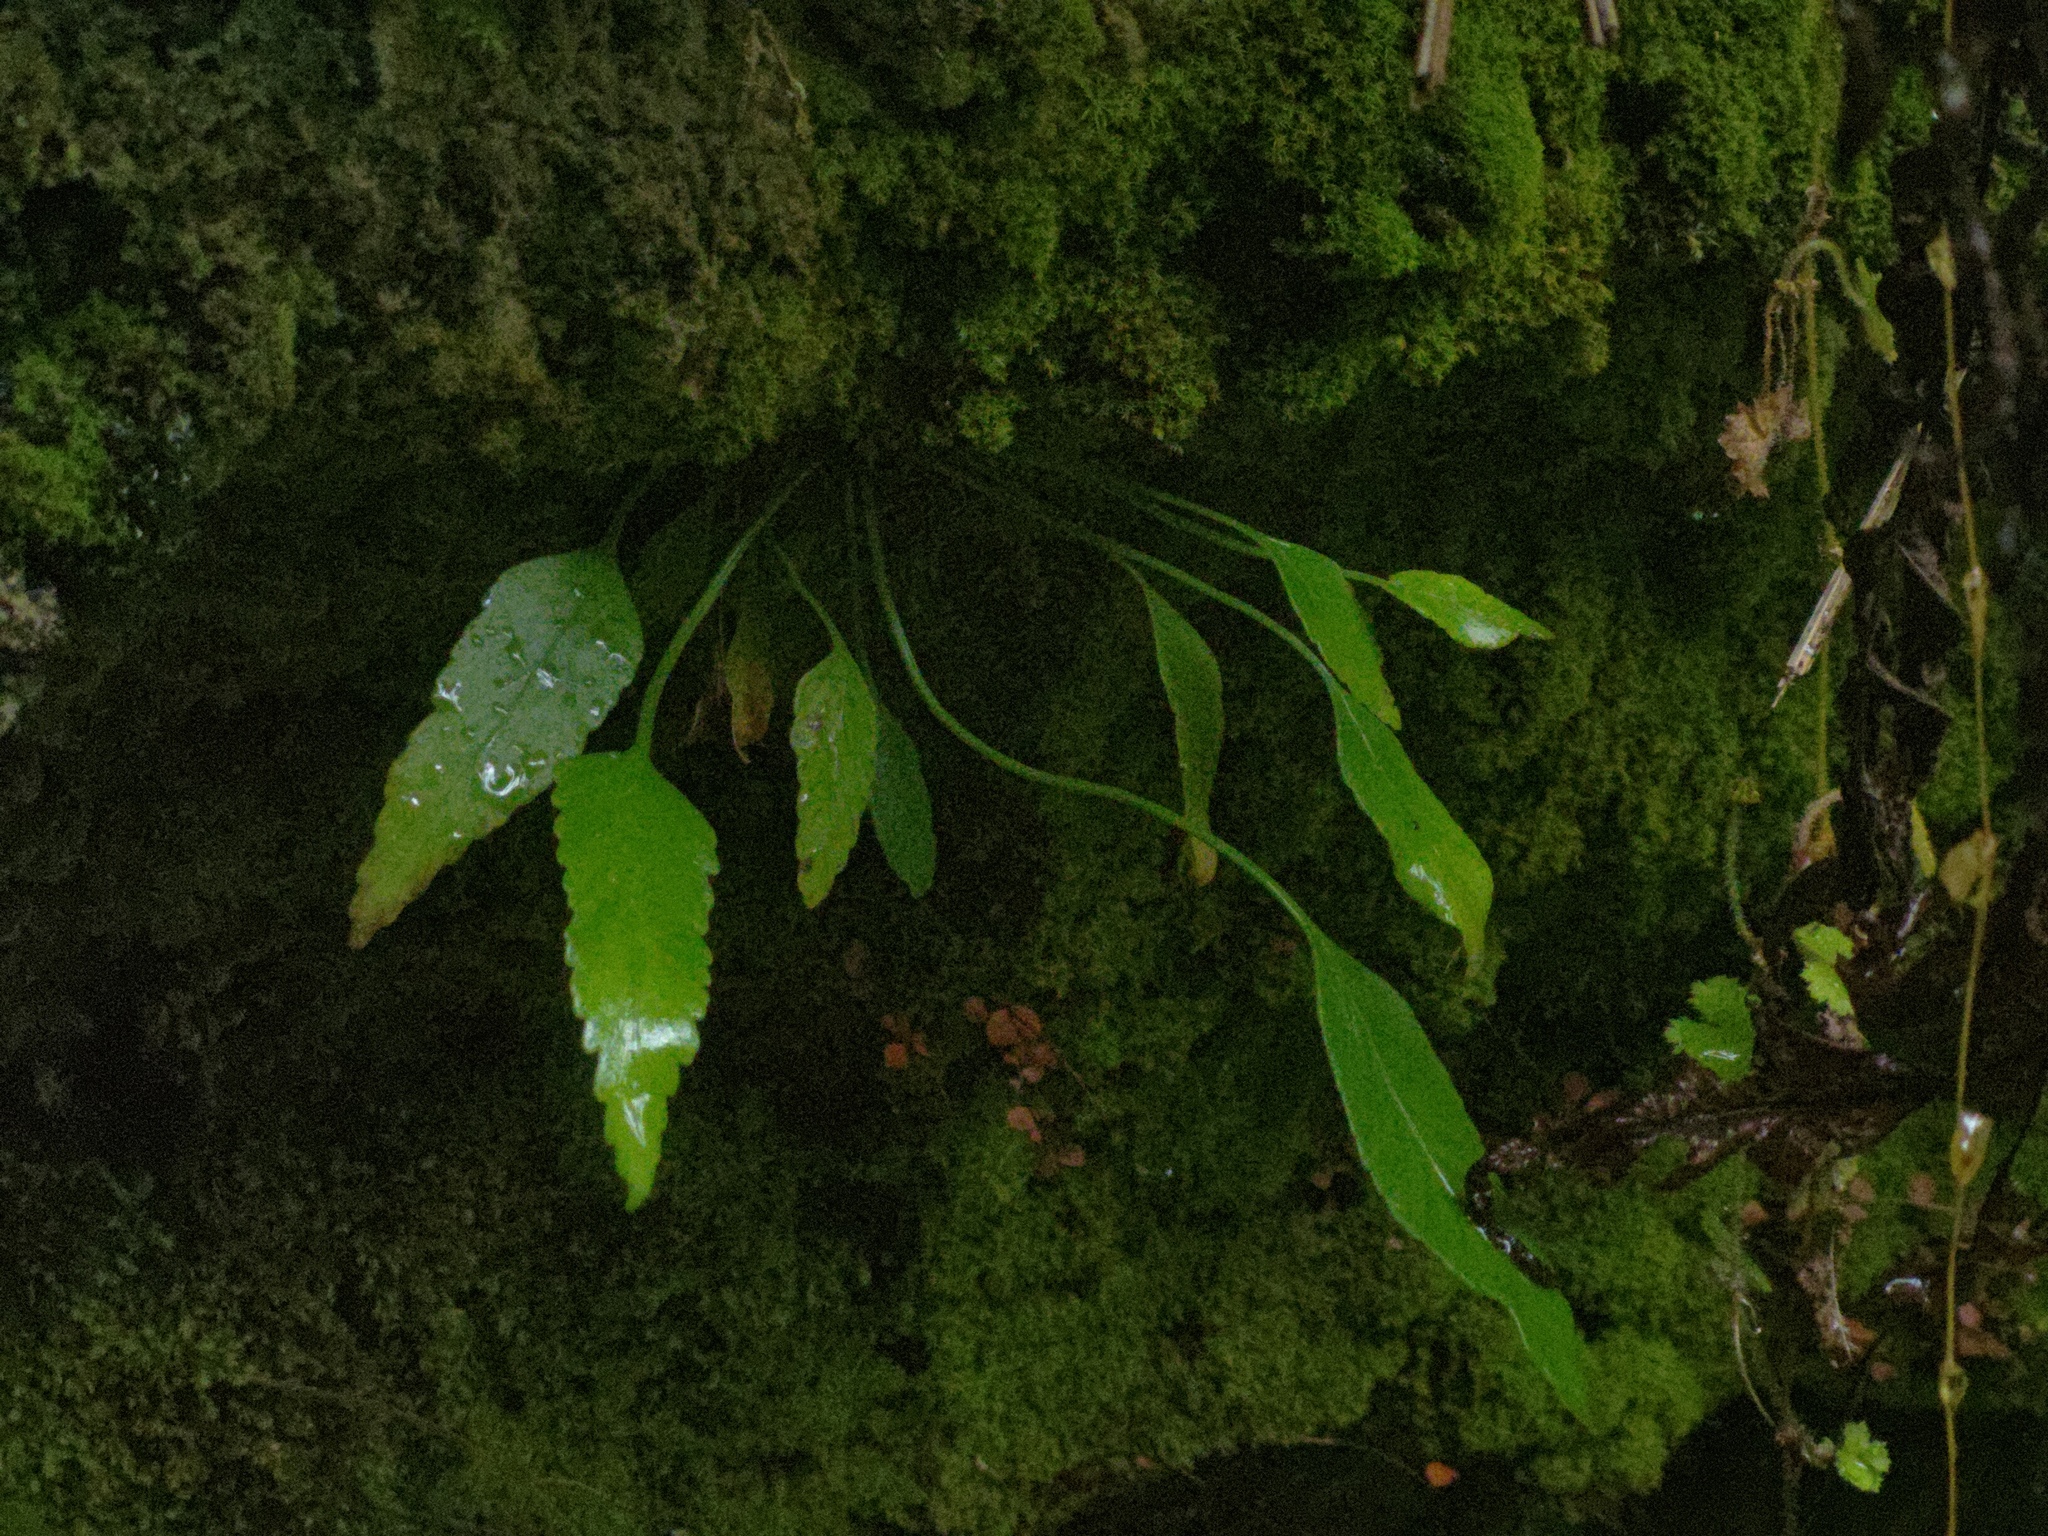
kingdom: Plantae
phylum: Tracheophyta
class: Polypodiopsida
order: Polypodiales
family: Aspleniaceae
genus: Asplenium
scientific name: Asplenium lepidotum
